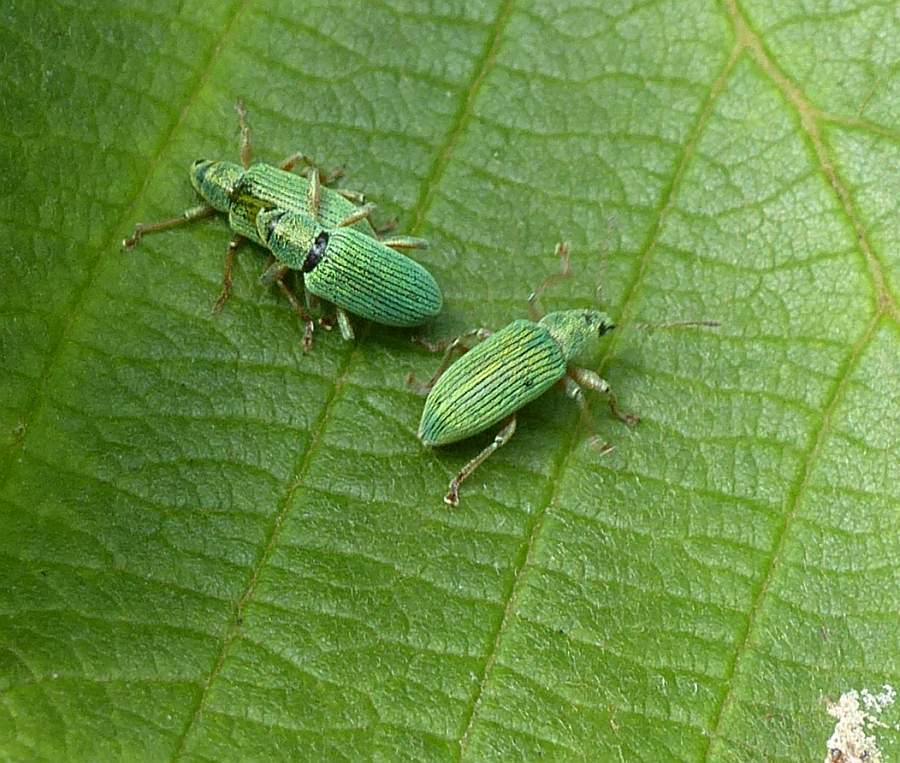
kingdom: Animalia
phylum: Arthropoda
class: Insecta
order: Coleoptera
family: Curculionidae
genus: Polydrusus
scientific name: Polydrusus formosus
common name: Weevil
